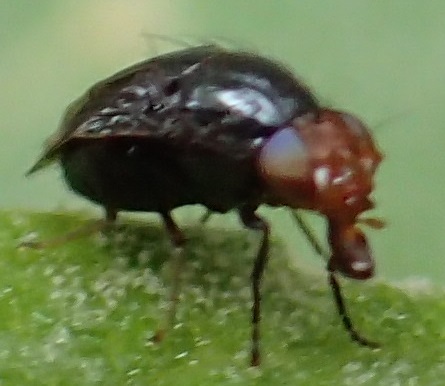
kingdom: Animalia
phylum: Arthropoda
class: Insecta
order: Diptera
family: Lauxaniidae
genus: Depressa
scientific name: Depressa atrata
